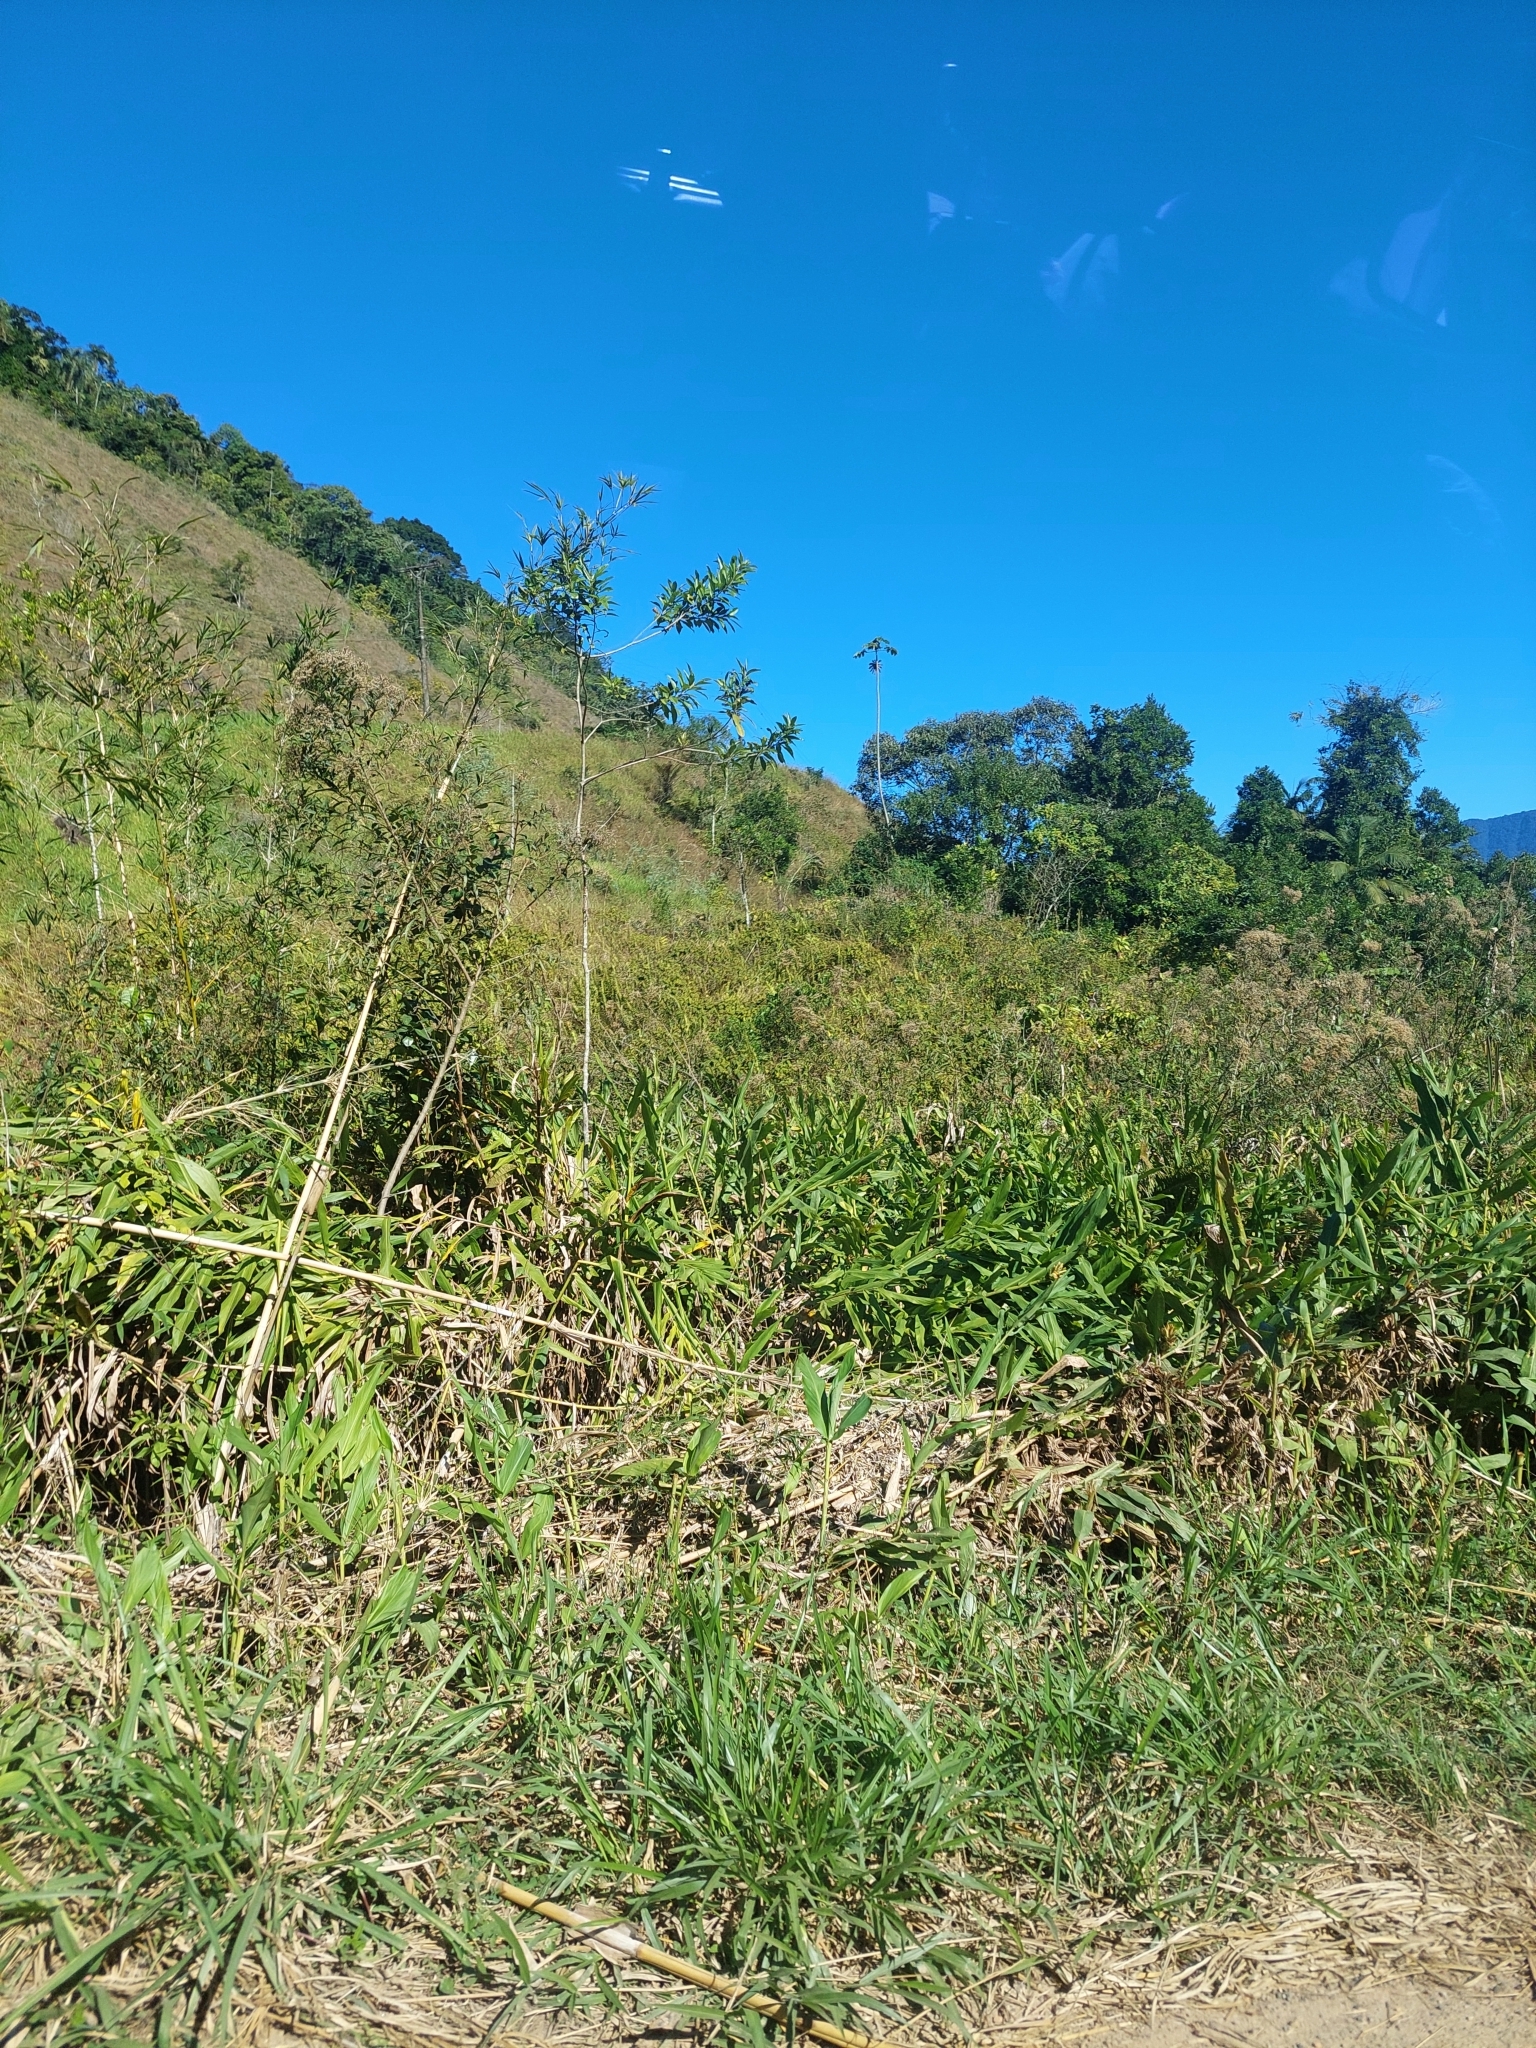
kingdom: Plantae
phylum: Tracheophyta
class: Liliopsida
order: Zingiberales
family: Zingiberaceae
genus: Hedychium
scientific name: Hedychium coronarium
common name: White garland-lily
